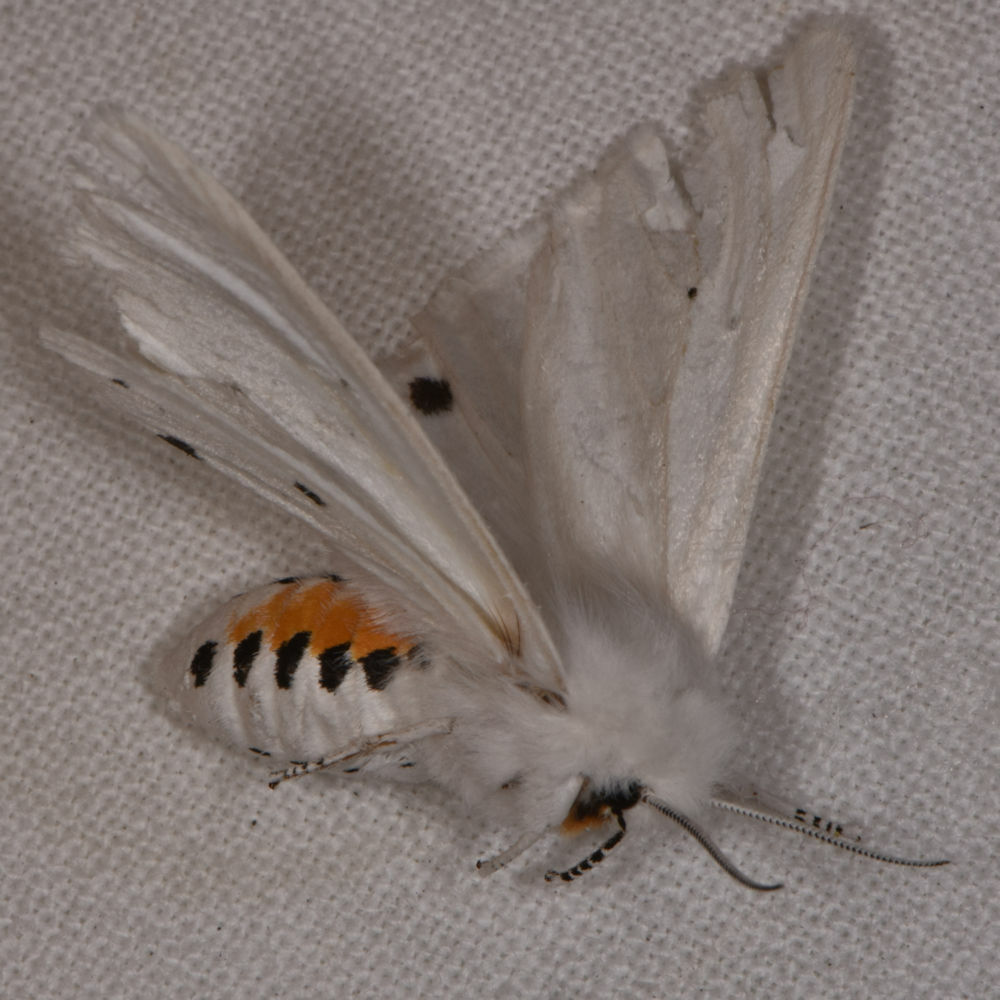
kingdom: Animalia
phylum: Arthropoda
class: Insecta
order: Lepidoptera
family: Erebidae
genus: Spilosoma
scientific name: Spilosoma virginica
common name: Virginia tiger moth
